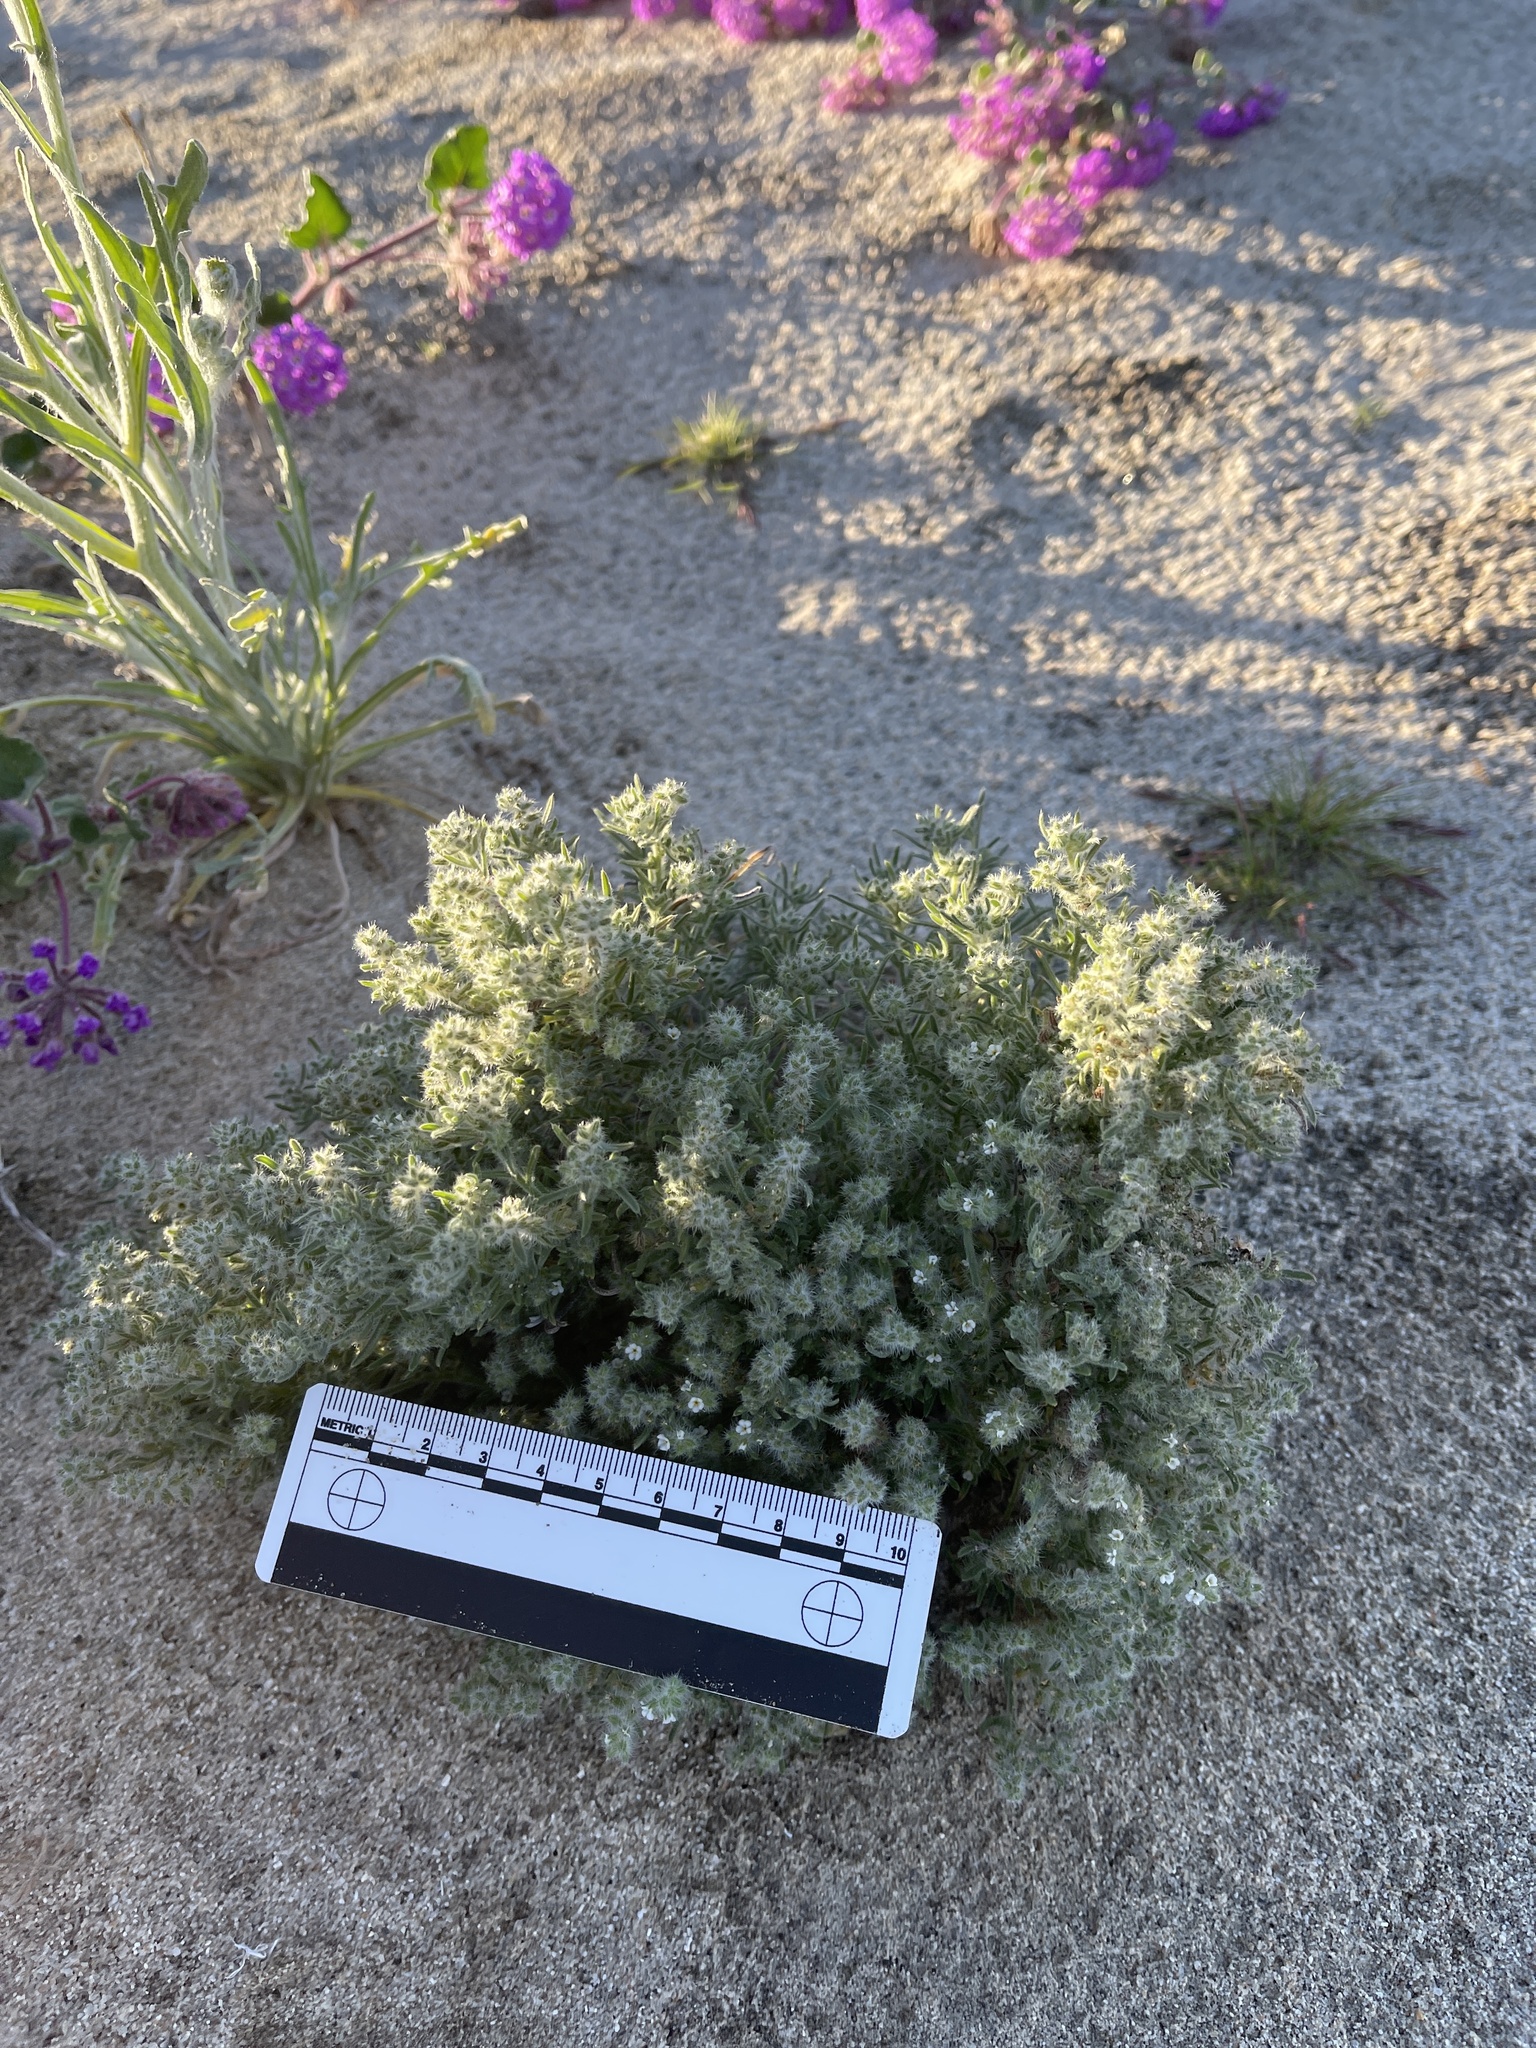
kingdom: Plantae
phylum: Tracheophyta
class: Magnoliopsida
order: Boraginales
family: Boraginaceae
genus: Cryptantha
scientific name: Cryptantha ganderi
